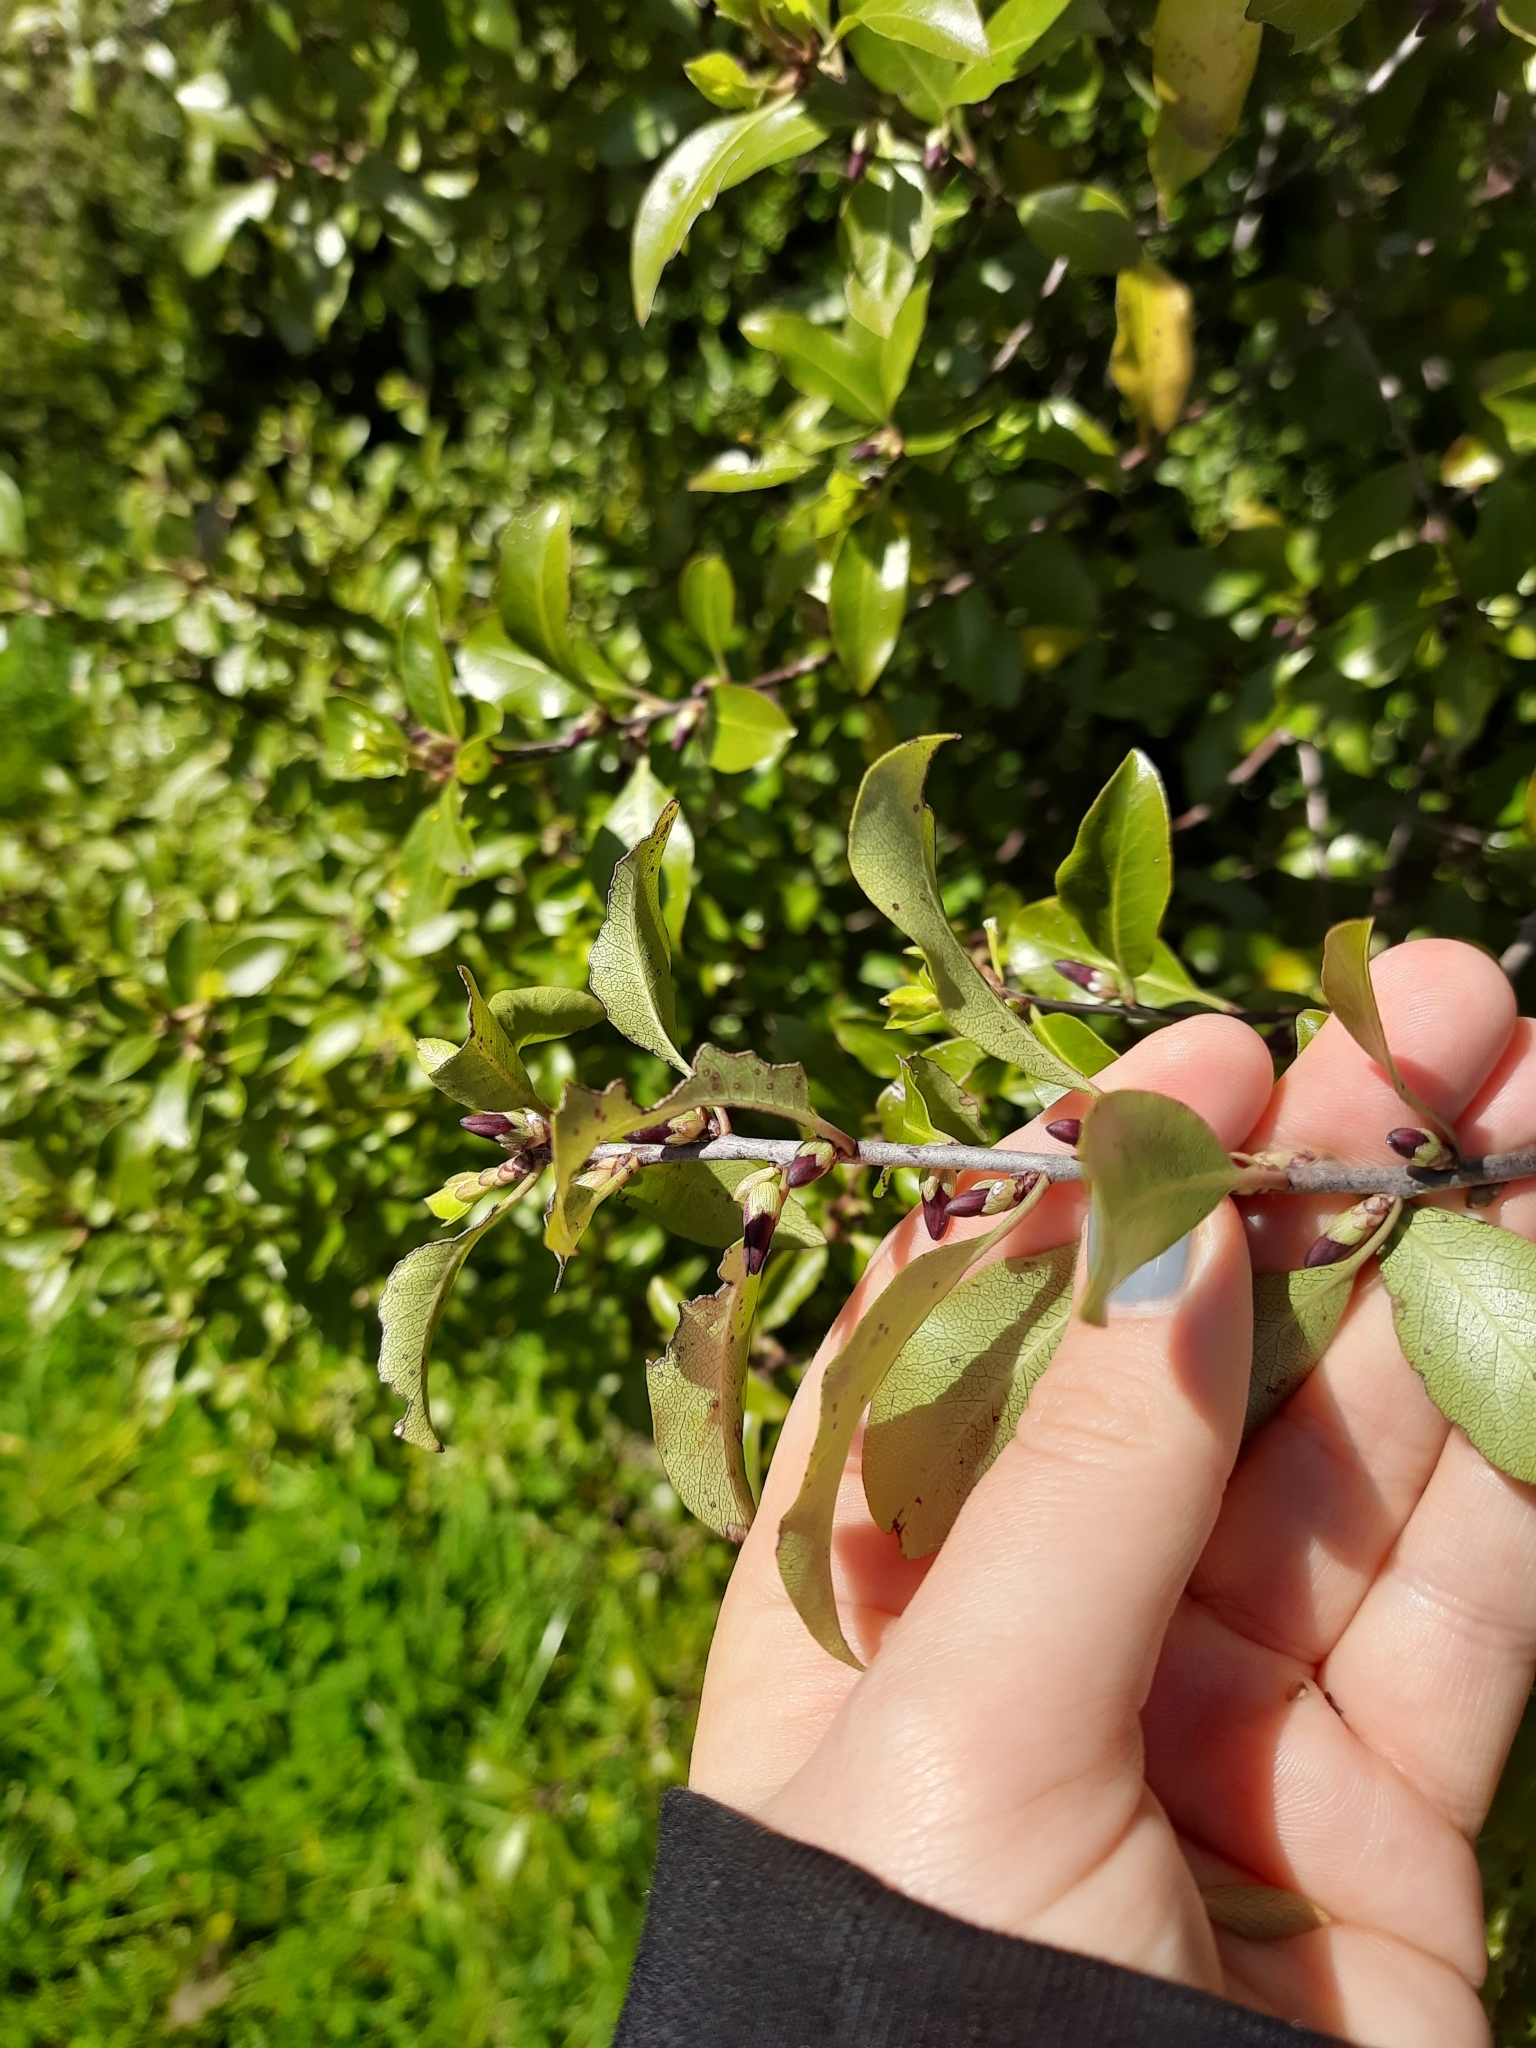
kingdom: Plantae
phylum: Tracheophyta
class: Magnoliopsida
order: Apiales
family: Pittosporaceae
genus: Pittosporum
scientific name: Pittosporum tenuifolium
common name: Kohuhu
